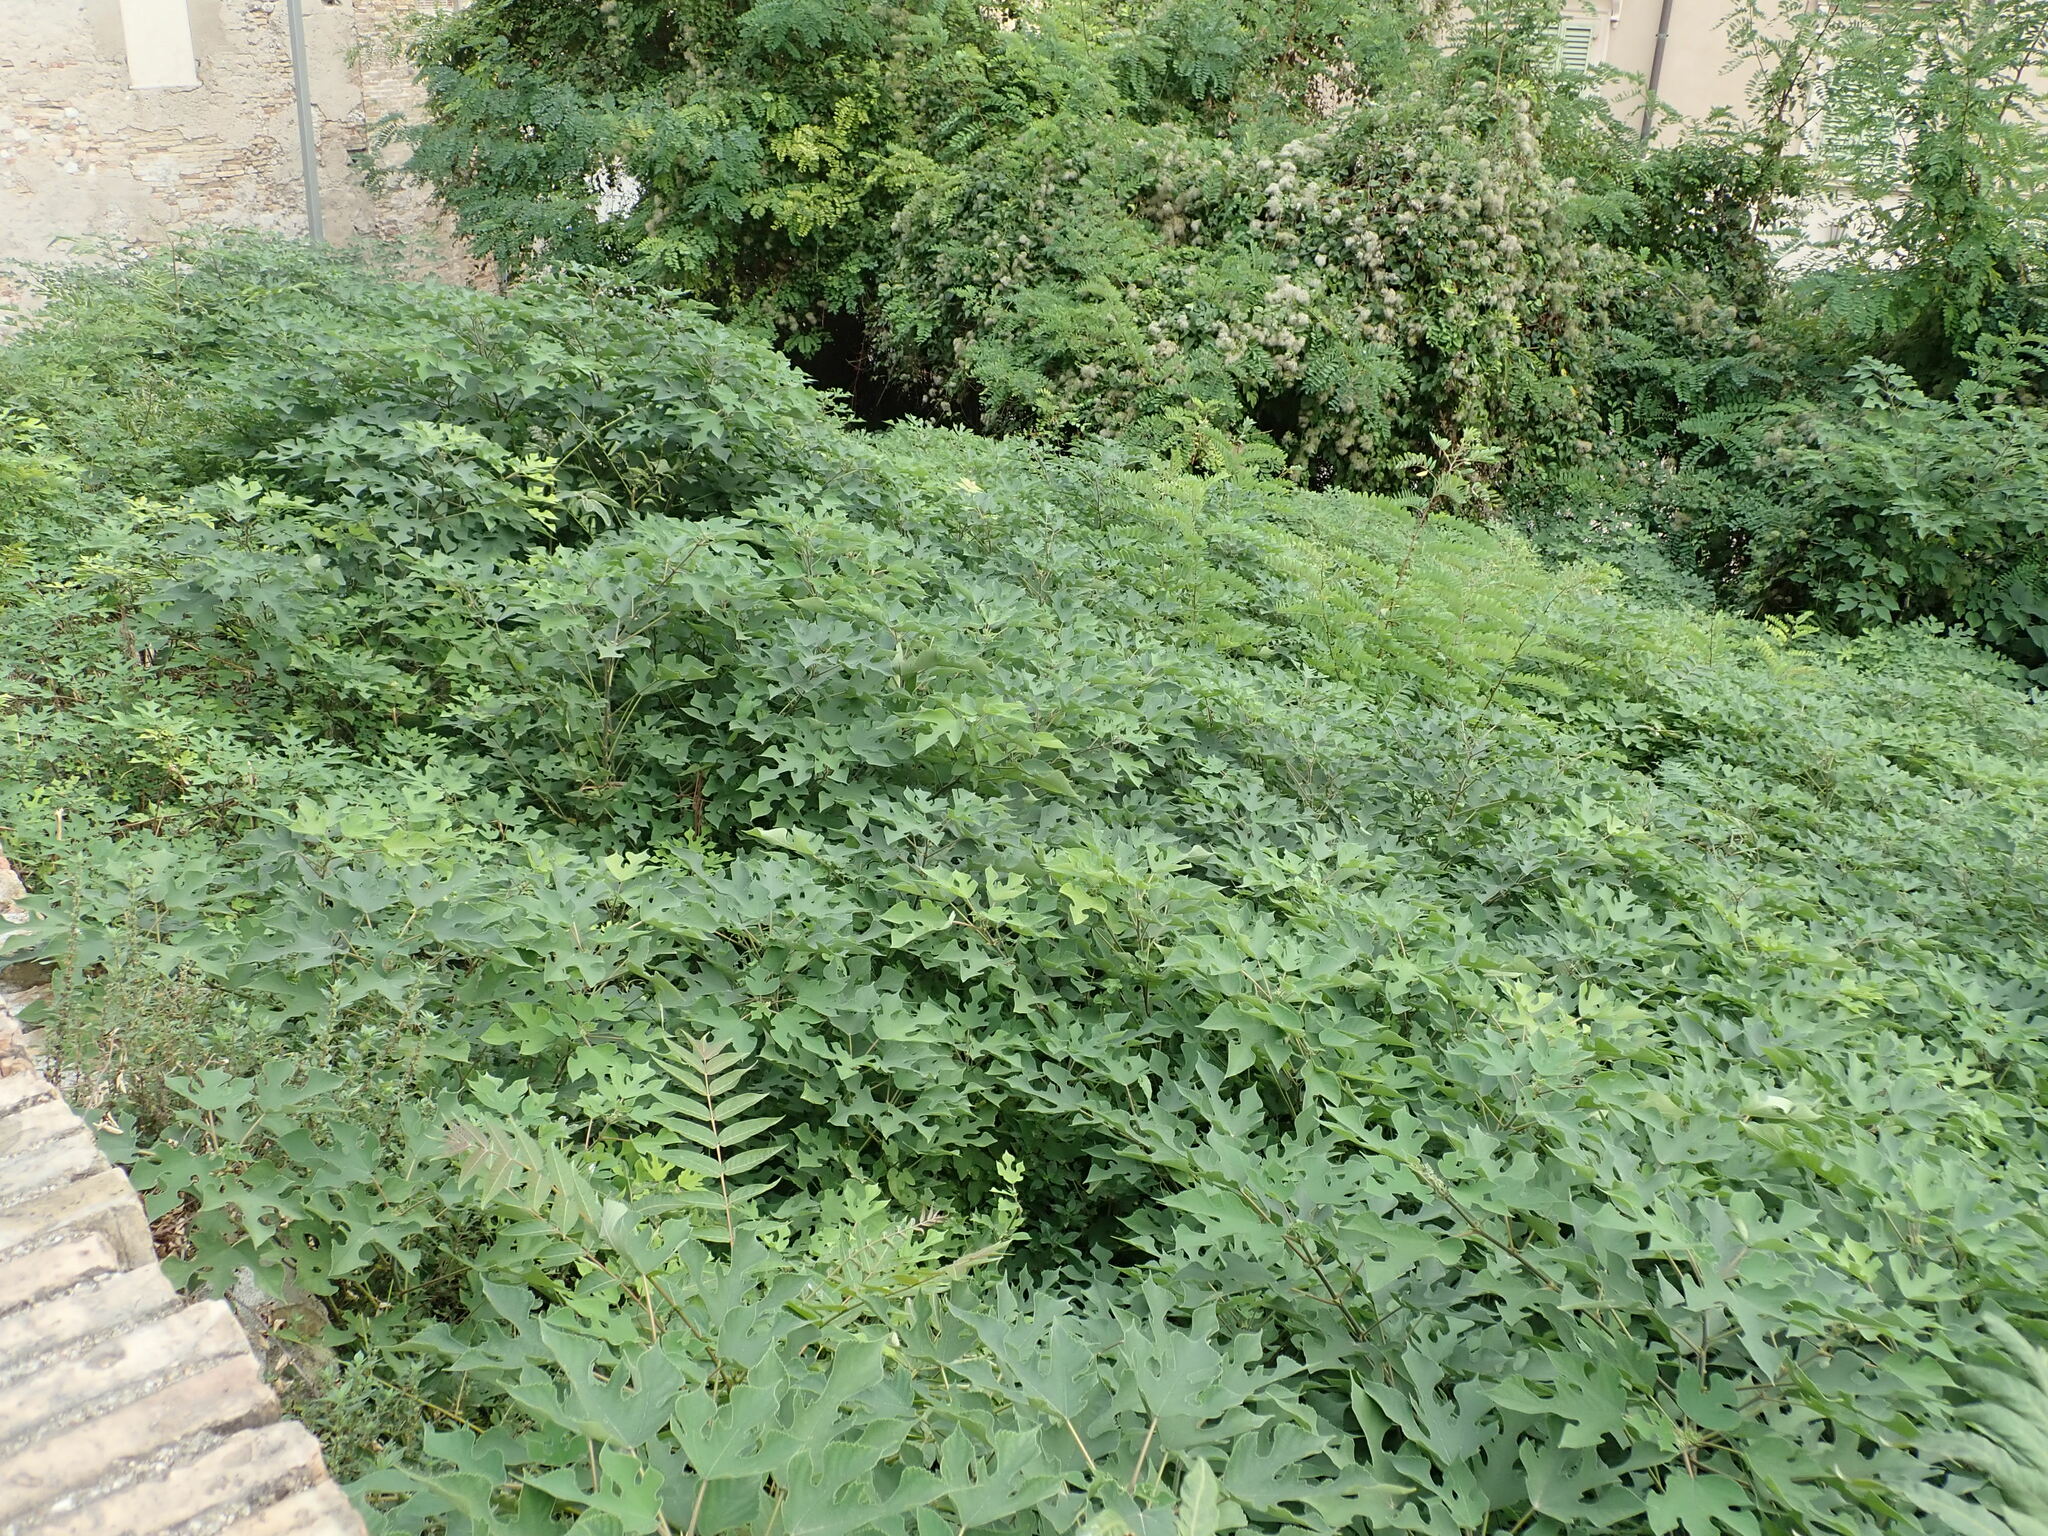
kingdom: Plantae
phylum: Tracheophyta
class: Magnoliopsida
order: Rosales
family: Moraceae
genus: Broussonetia
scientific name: Broussonetia papyrifera
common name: Paper mulberry
